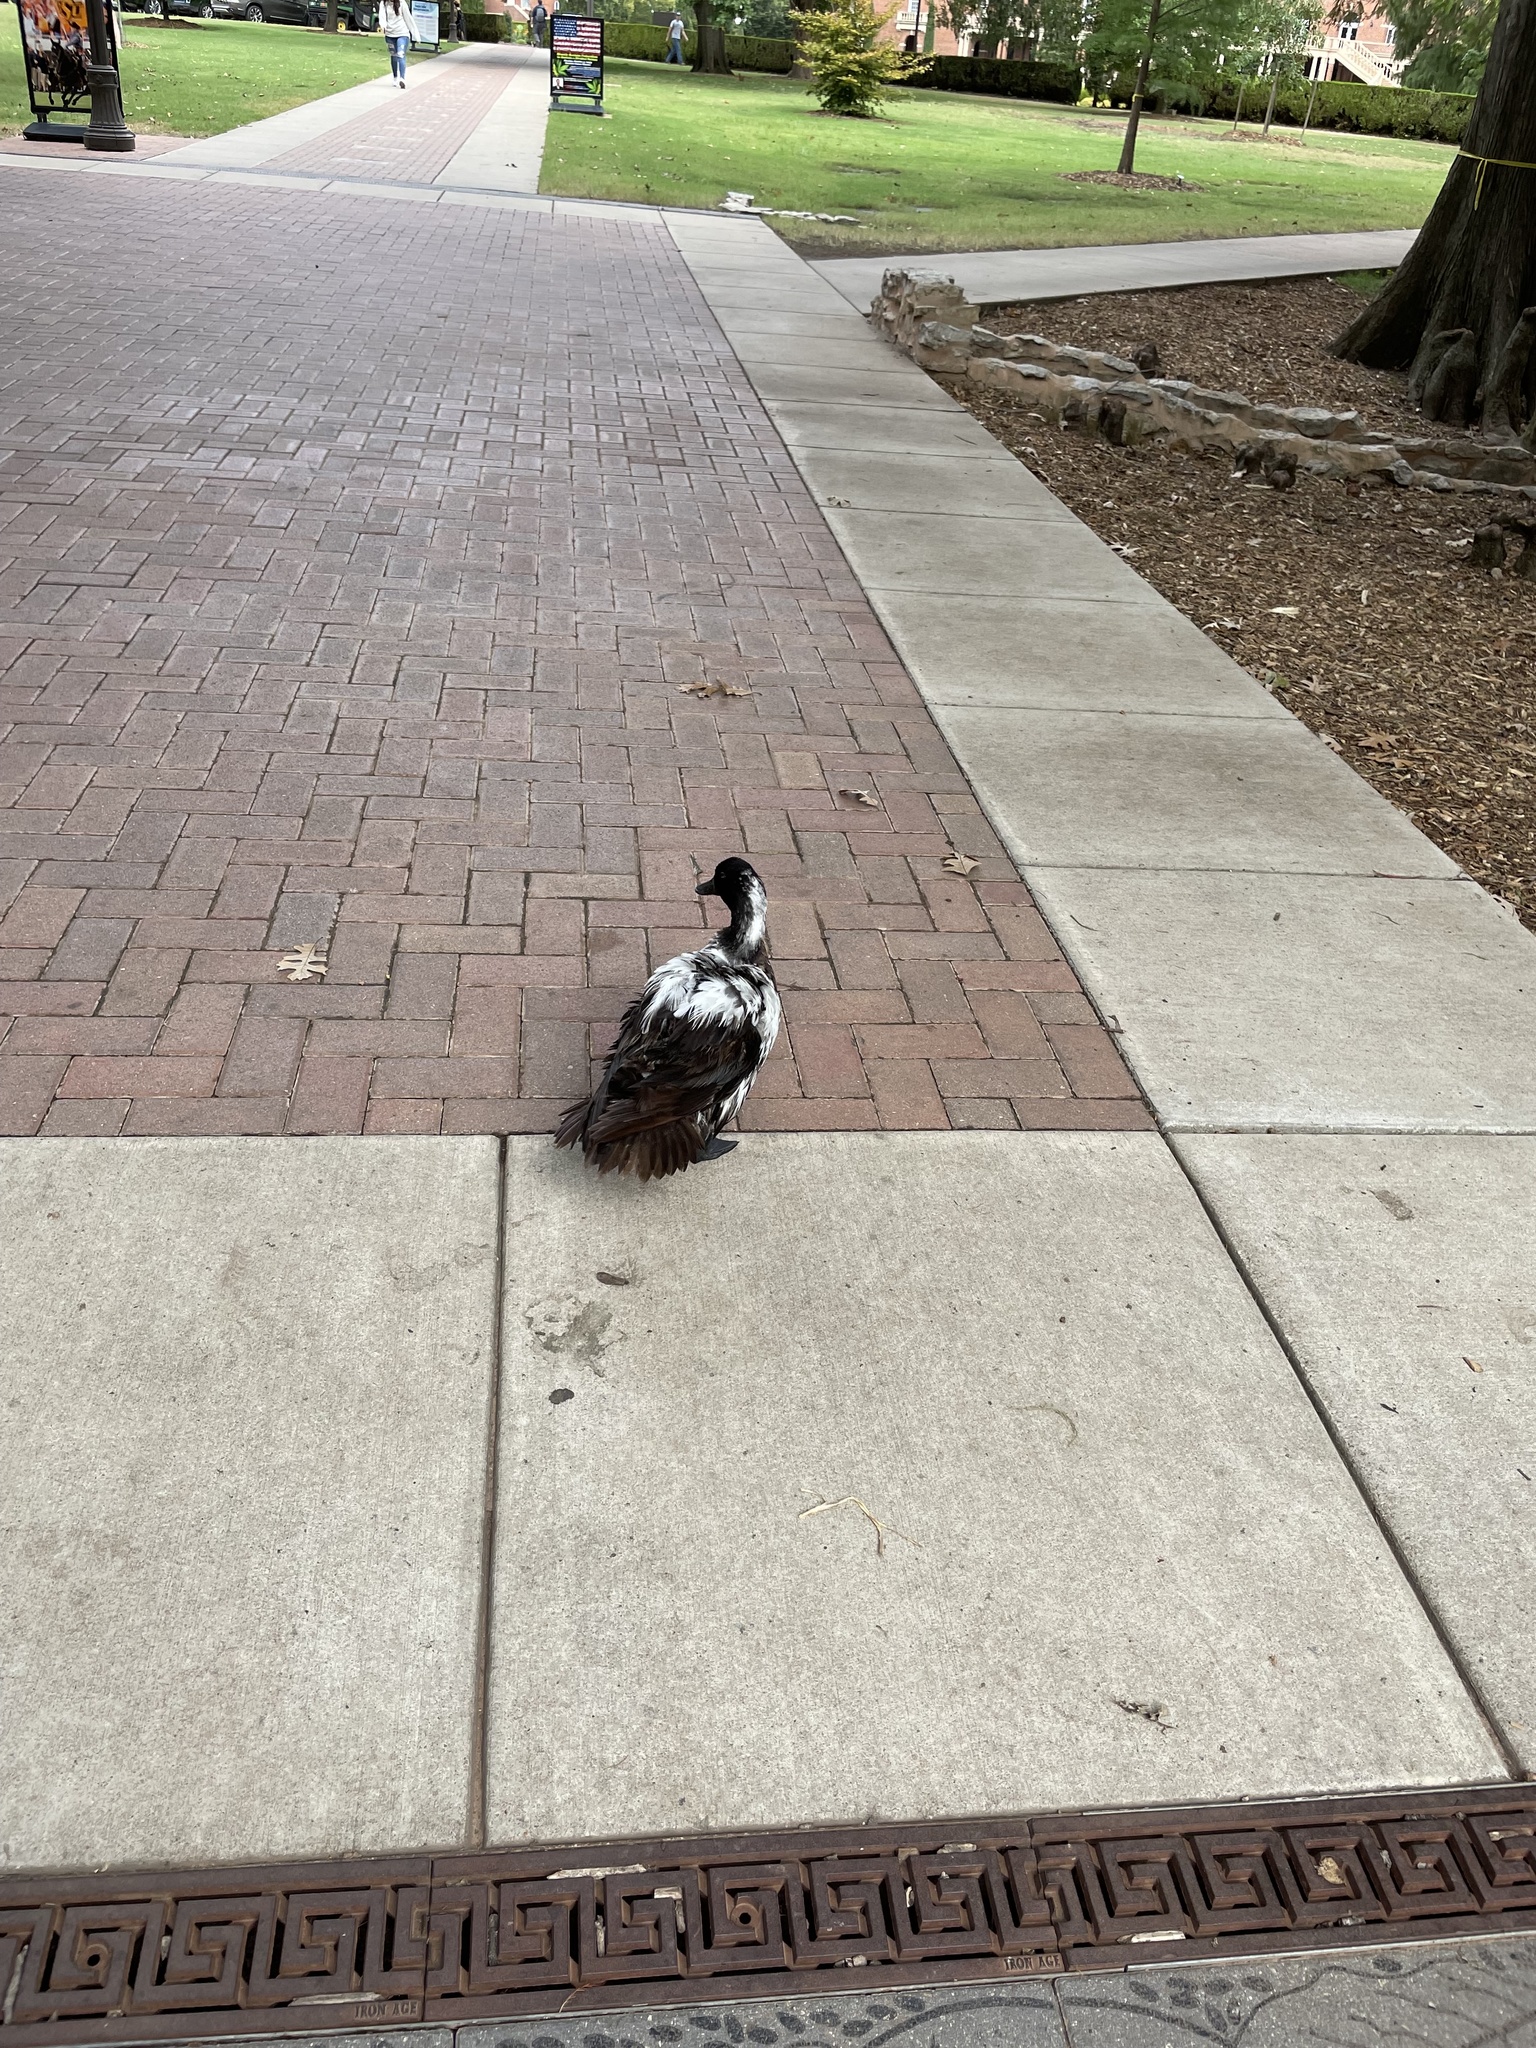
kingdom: Animalia
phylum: Chordata
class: Aves
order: Anseriformes
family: Anatidae
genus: Anas
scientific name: Anas platyrhynchos
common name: Mallard
